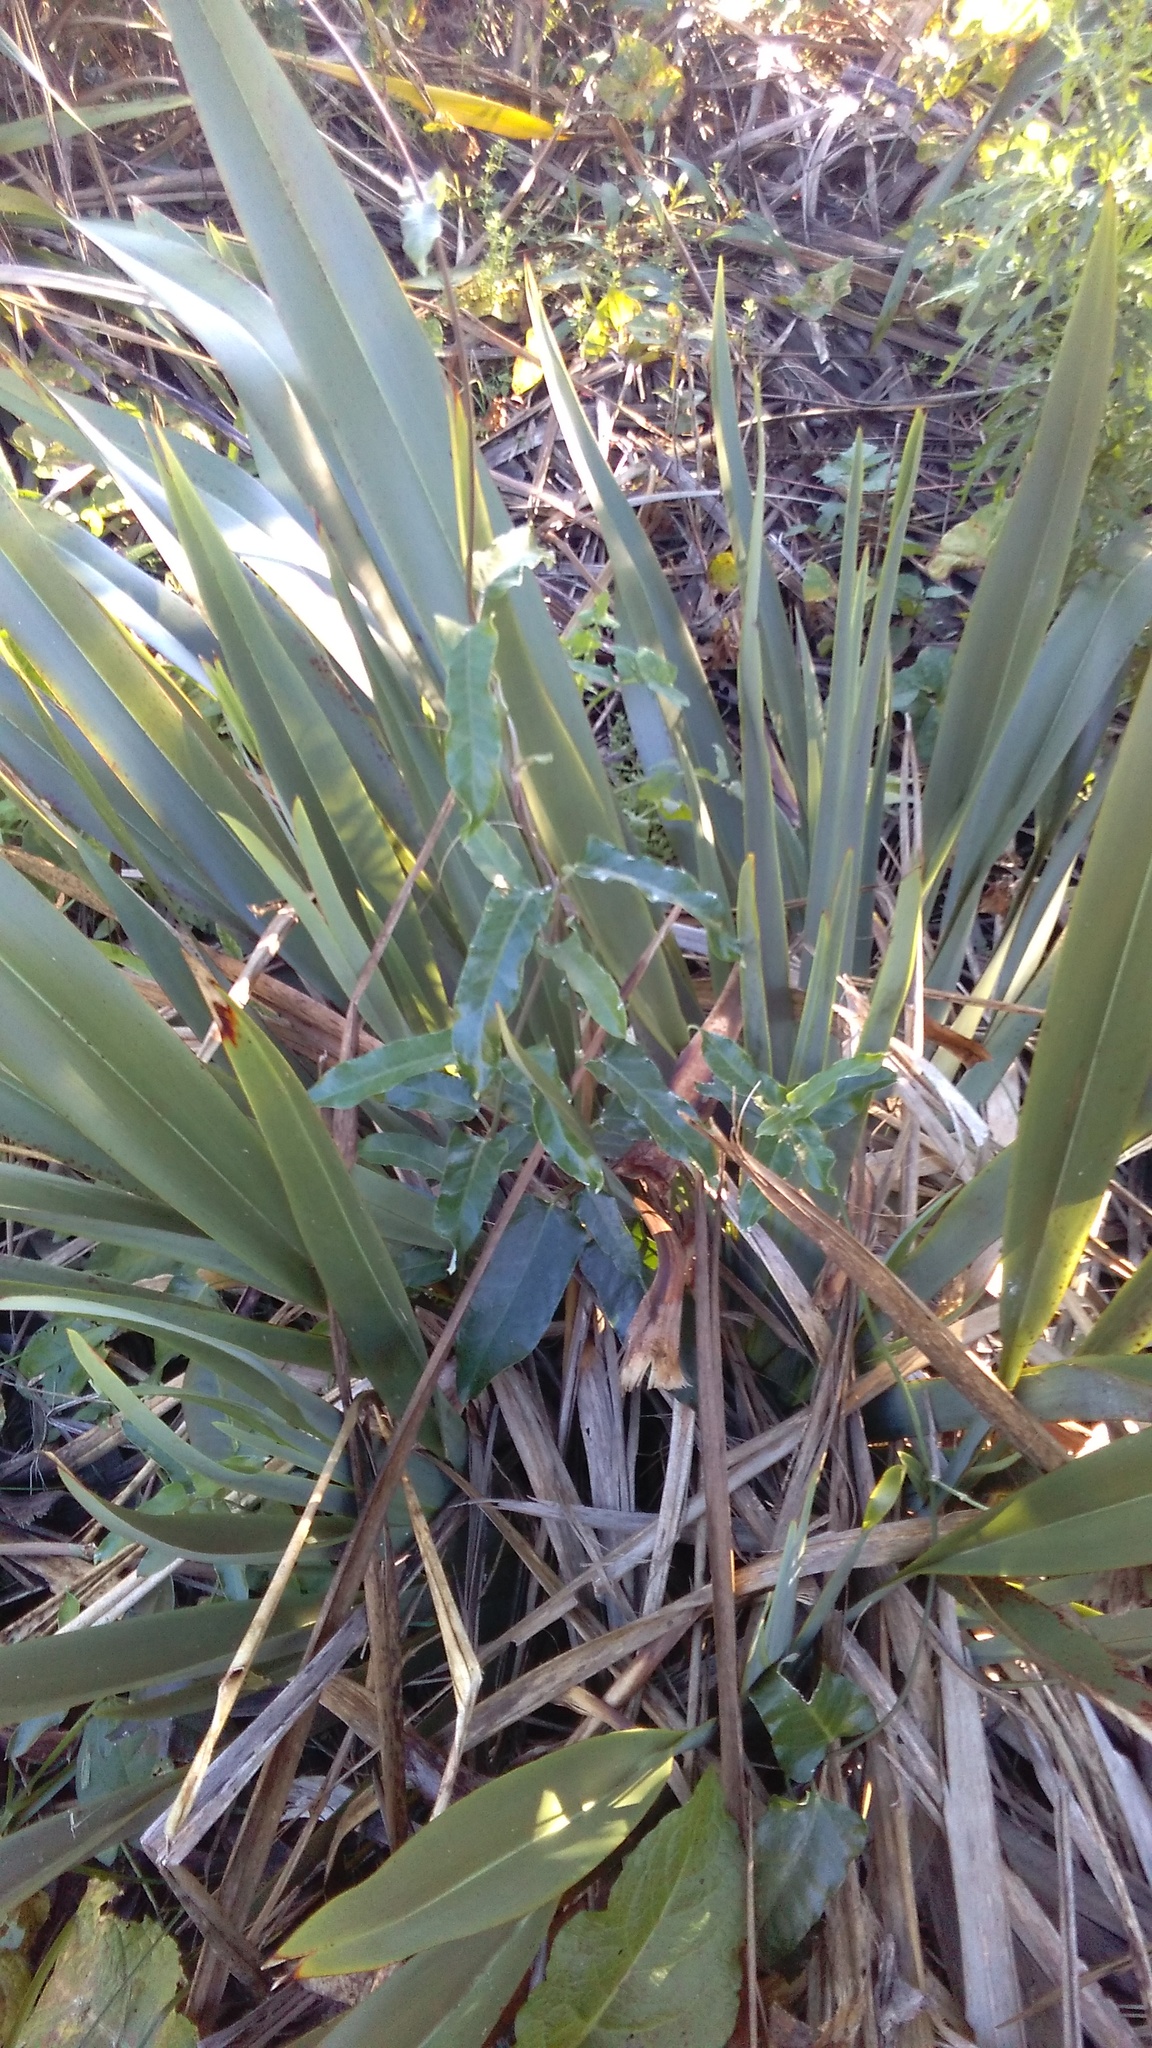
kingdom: Plantae
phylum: Tracheophyta
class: Magnoliopsida
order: Gentianales
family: Apocynaceae
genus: Araujia
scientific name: Araujia sericifera
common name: White bladderflower
